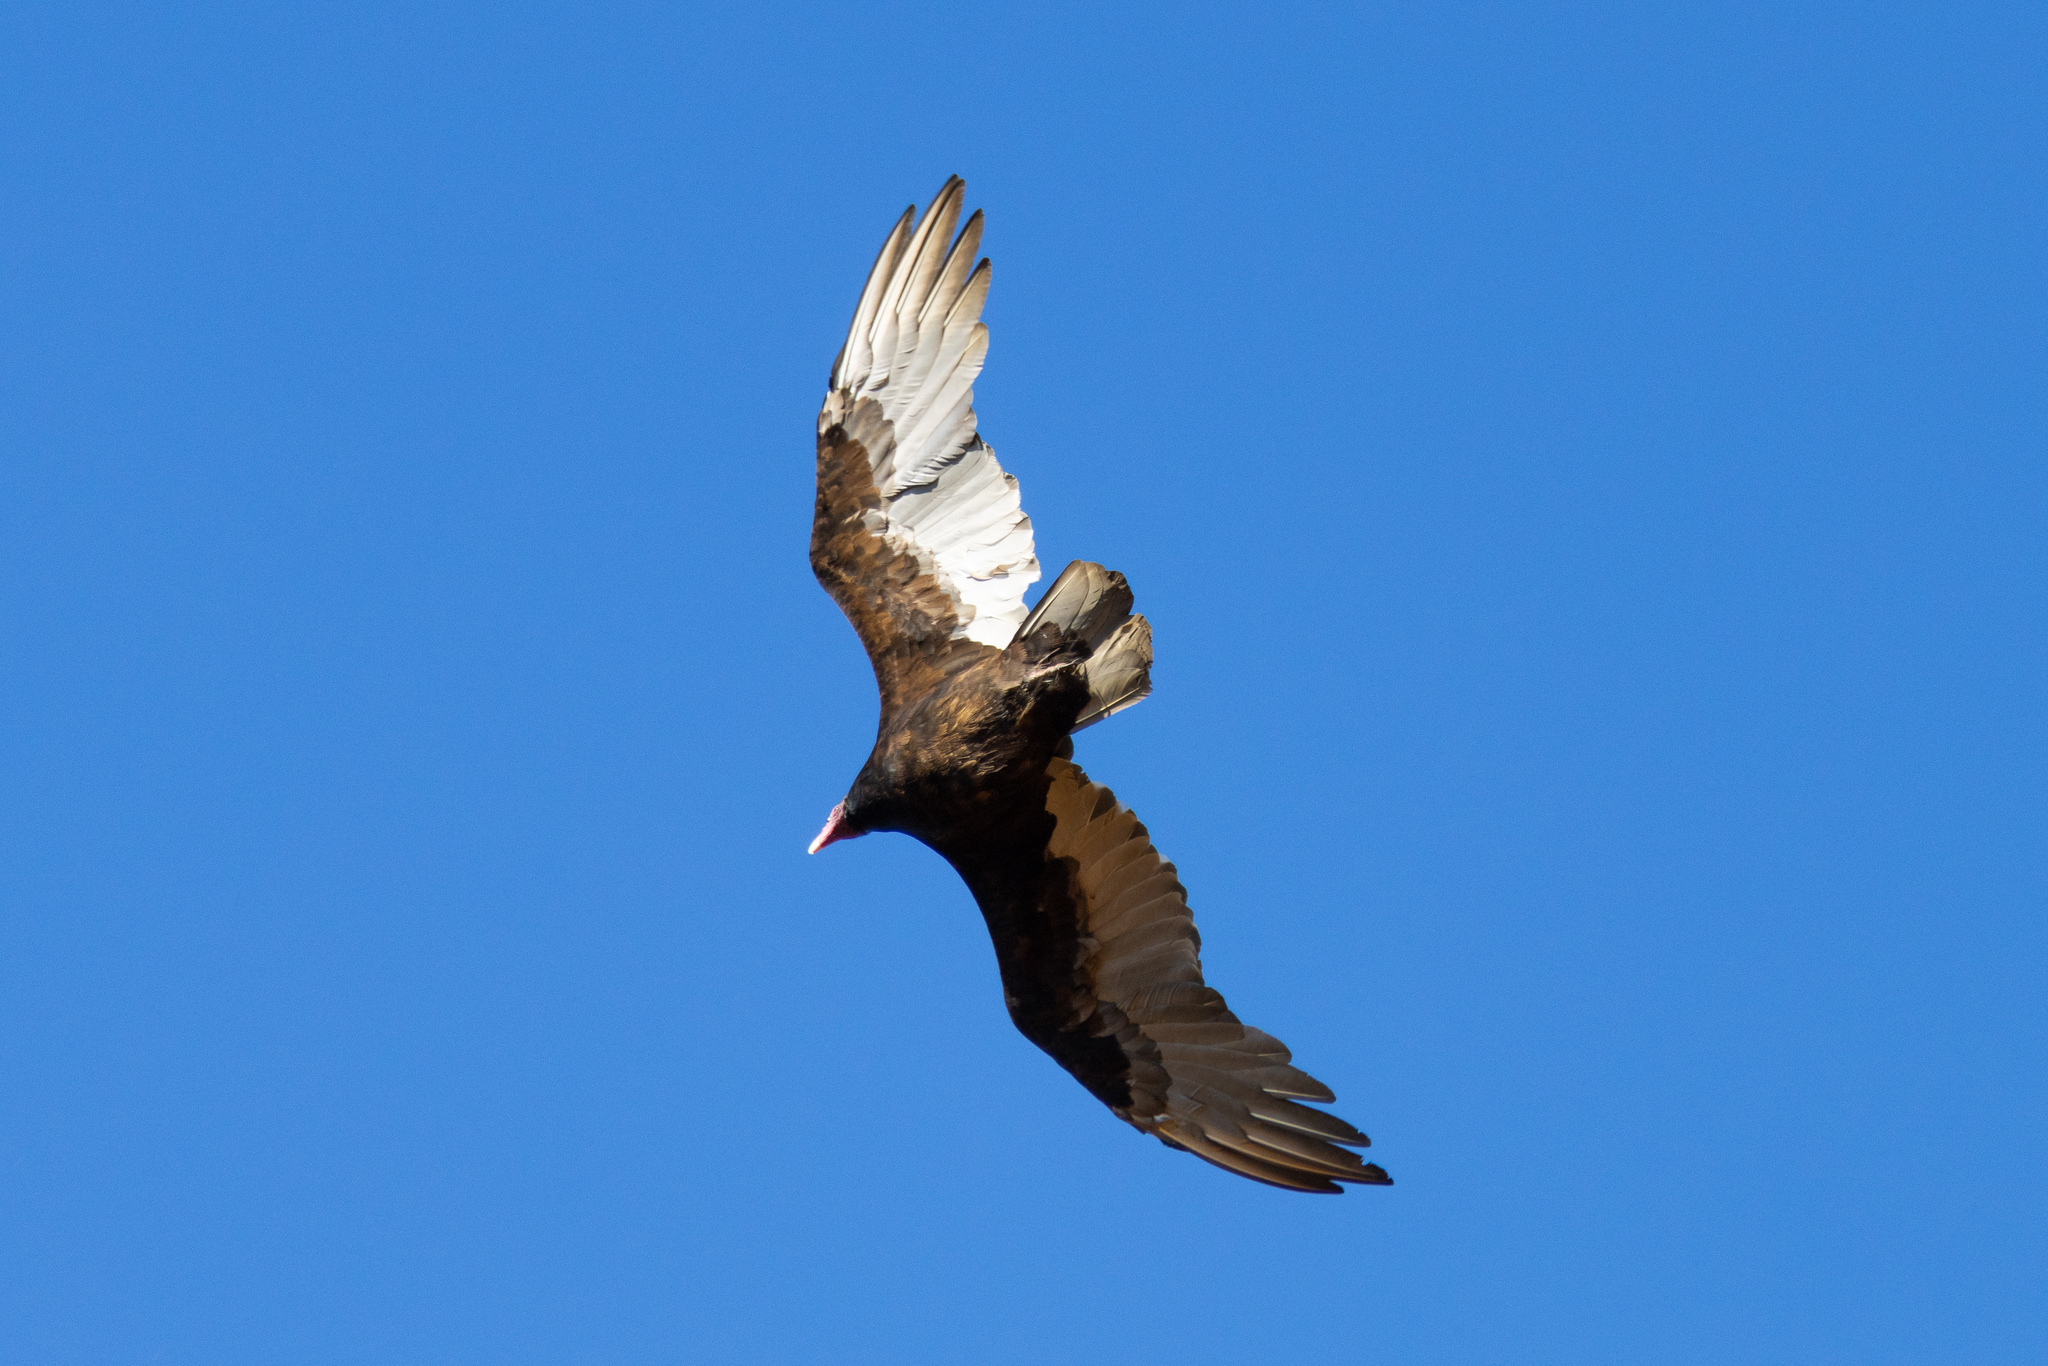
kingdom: Animalia
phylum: Chordata
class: Aves
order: Accipitriformes
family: Cathartidae
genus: Cathartes
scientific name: Cathartes aura
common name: Turkey vulture
